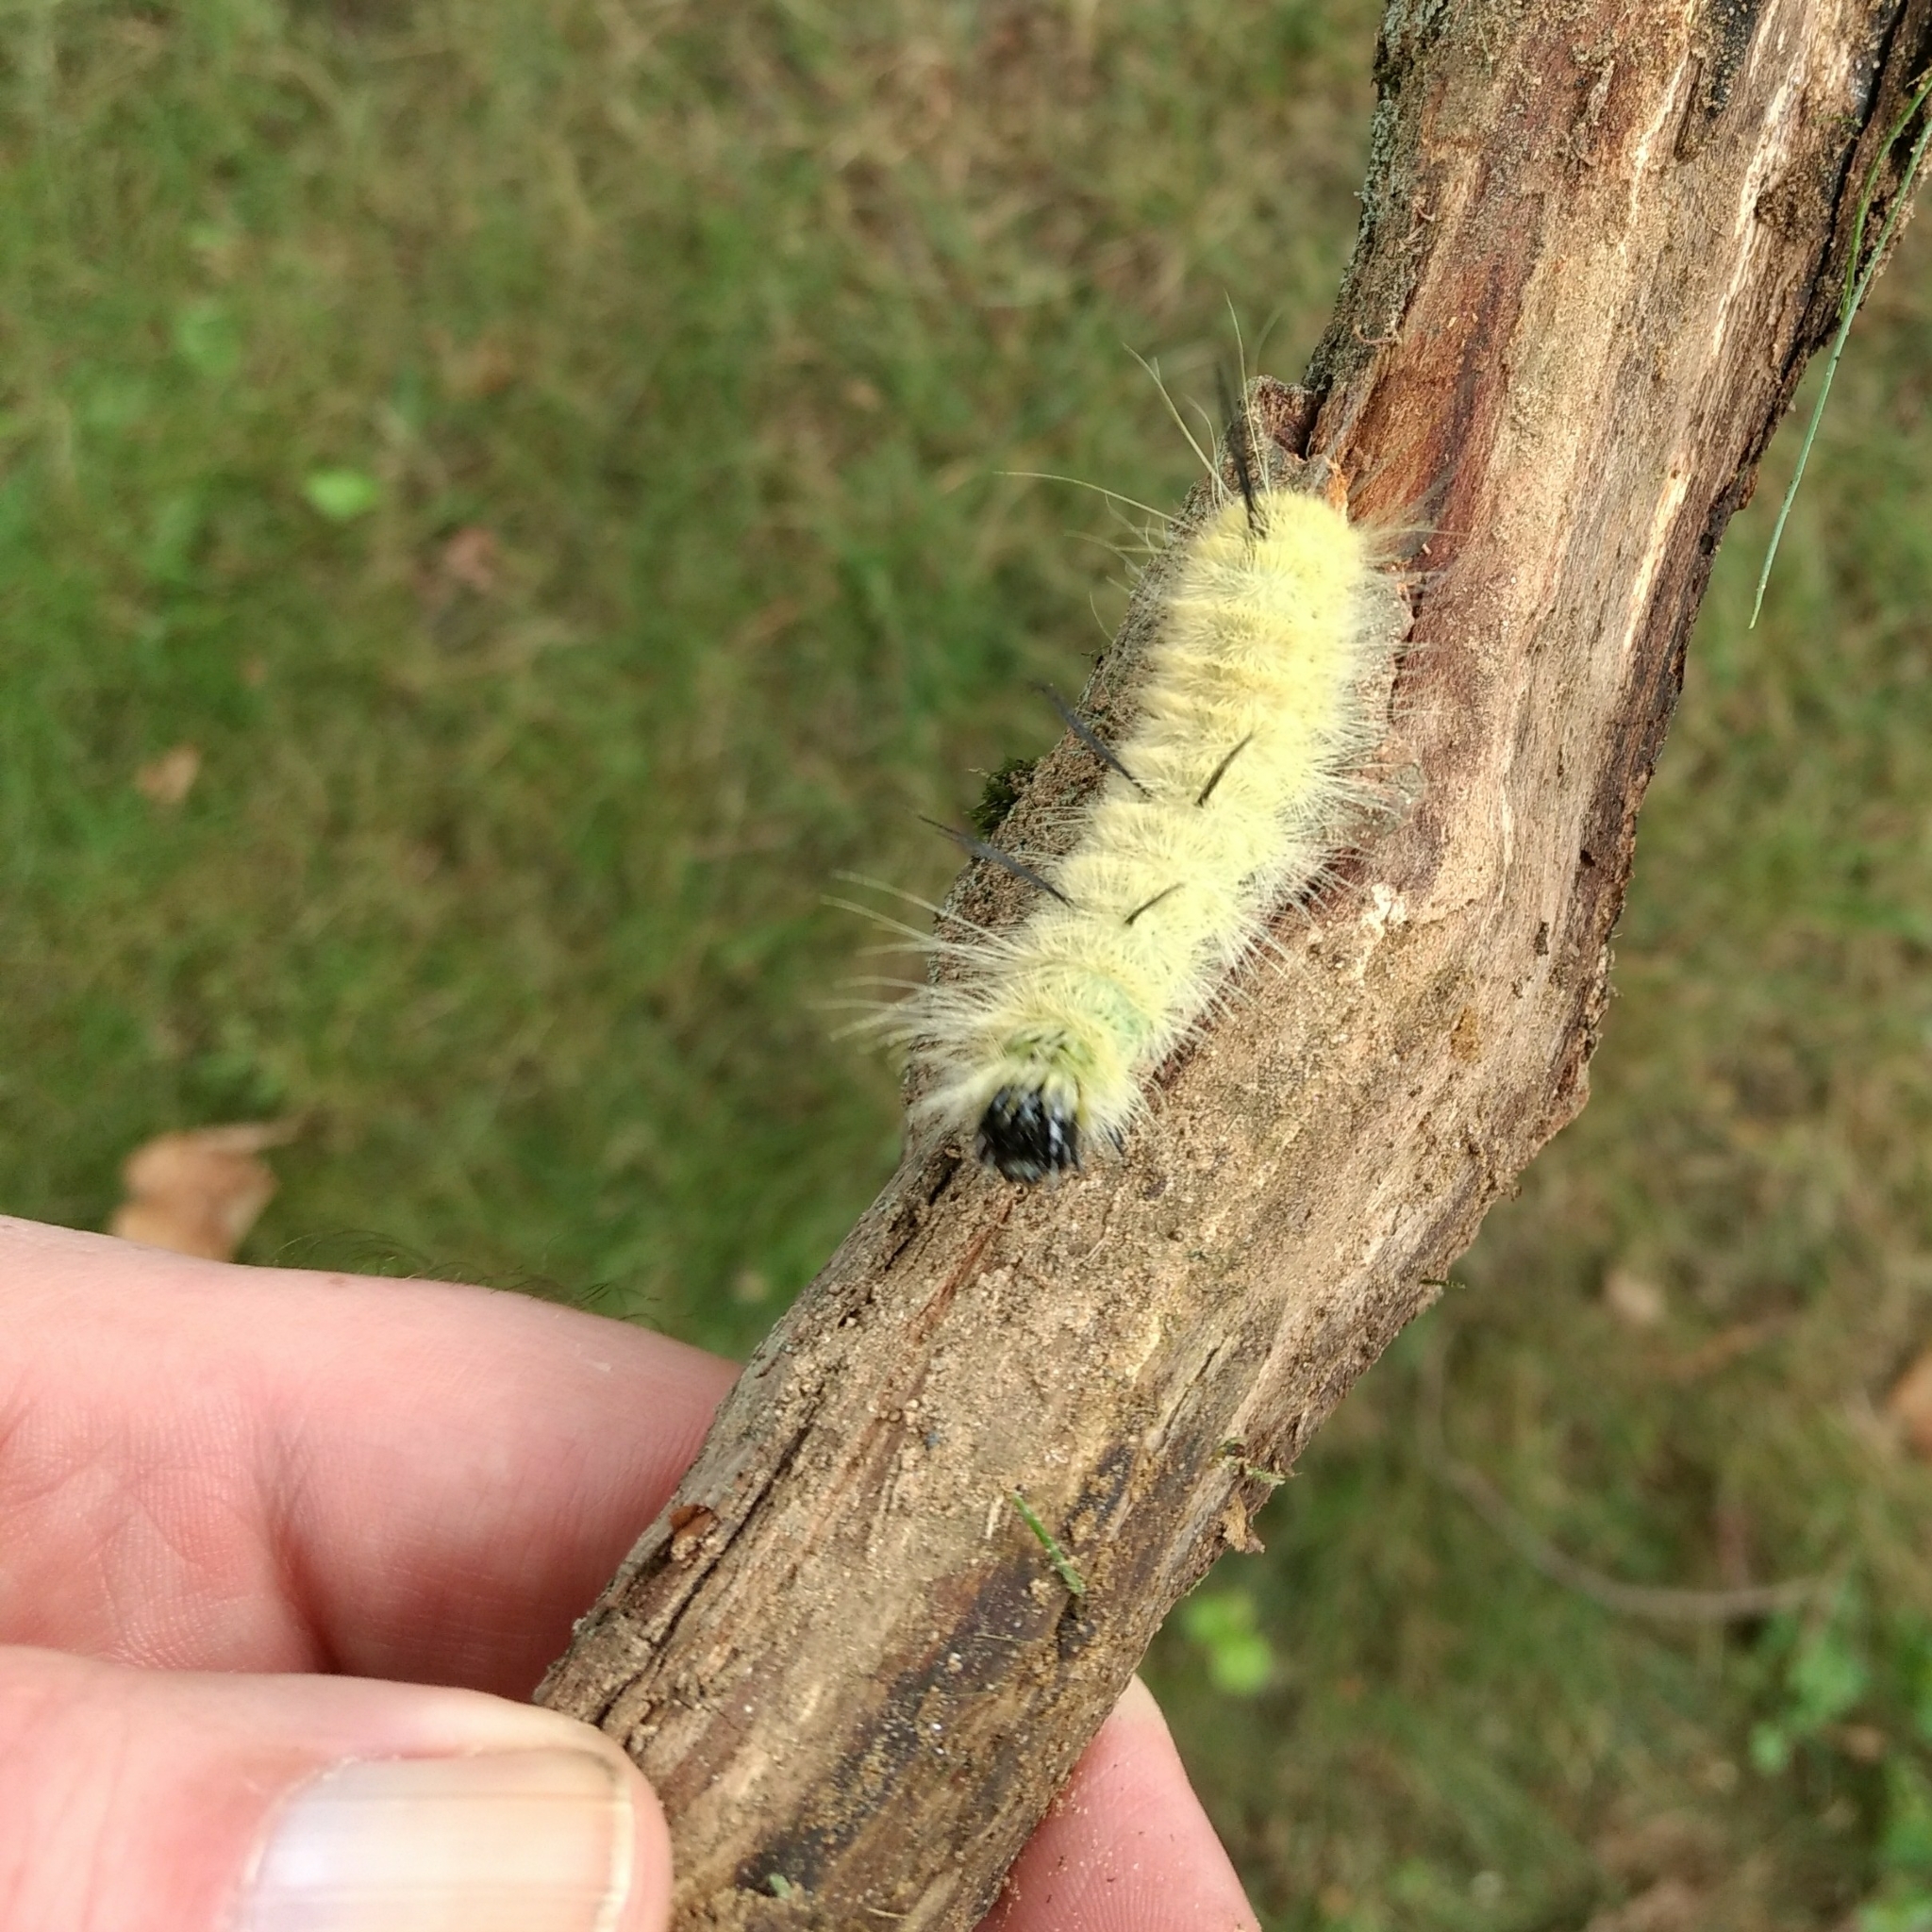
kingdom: Animalia
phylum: Arthropoda
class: Insecta
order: Lepidoptera
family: Noctuidae
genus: Acronicta
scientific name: Acronicta americana
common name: American dagger
